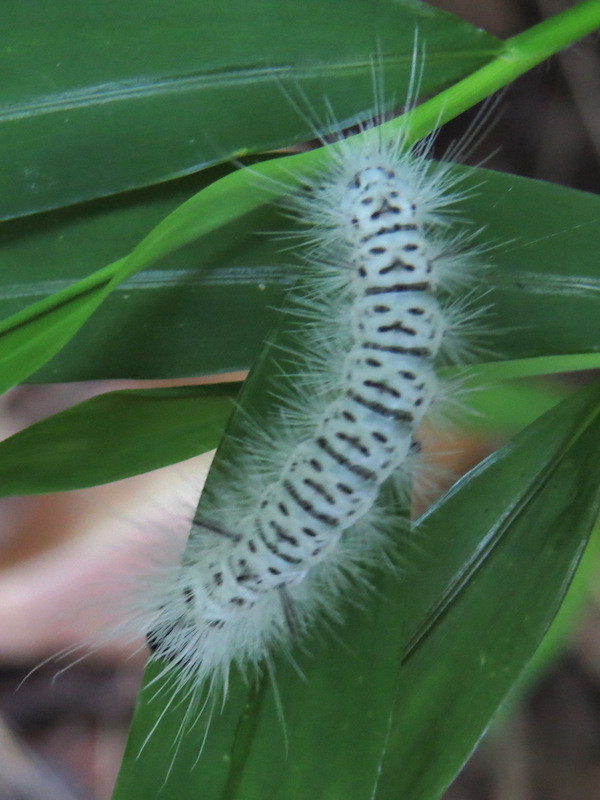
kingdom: Animalia
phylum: Arthropoda
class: Insecta
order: Lepidoptera
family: Erebidae
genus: Lophocampa
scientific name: Lophocampa caryae
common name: Hickory tussock moth
